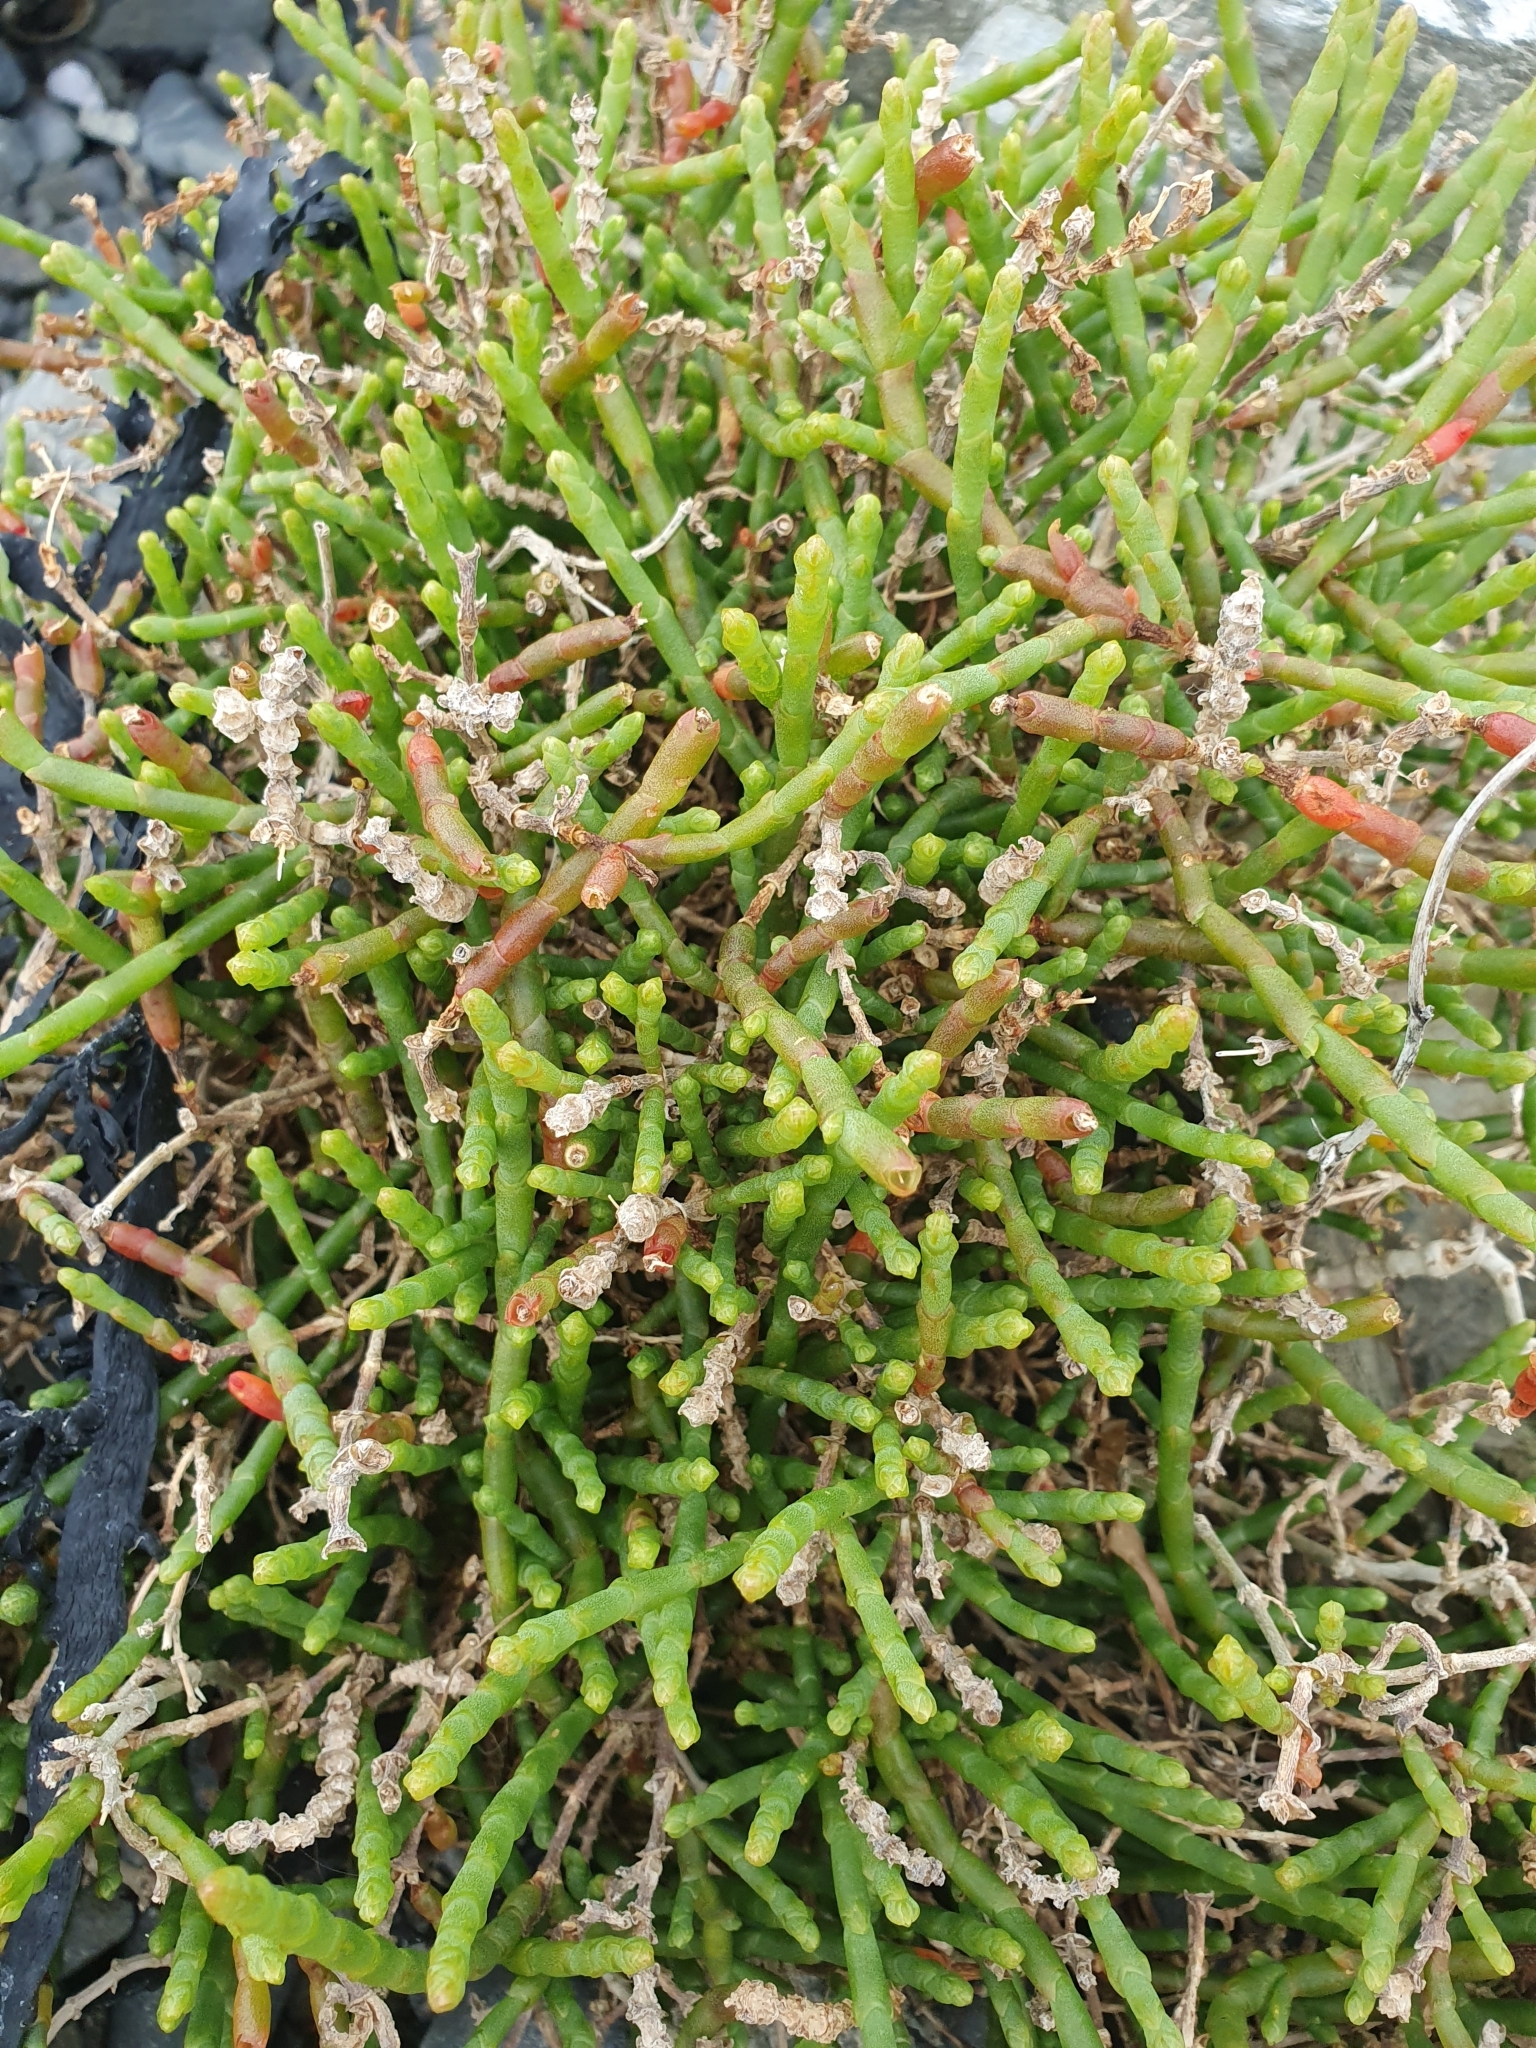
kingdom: Plantae
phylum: Tracheophyta
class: Magnoliopsida
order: Caryophyllales
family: Amaranthaceae
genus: Salicornia
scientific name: Salicornia quinqueflora
